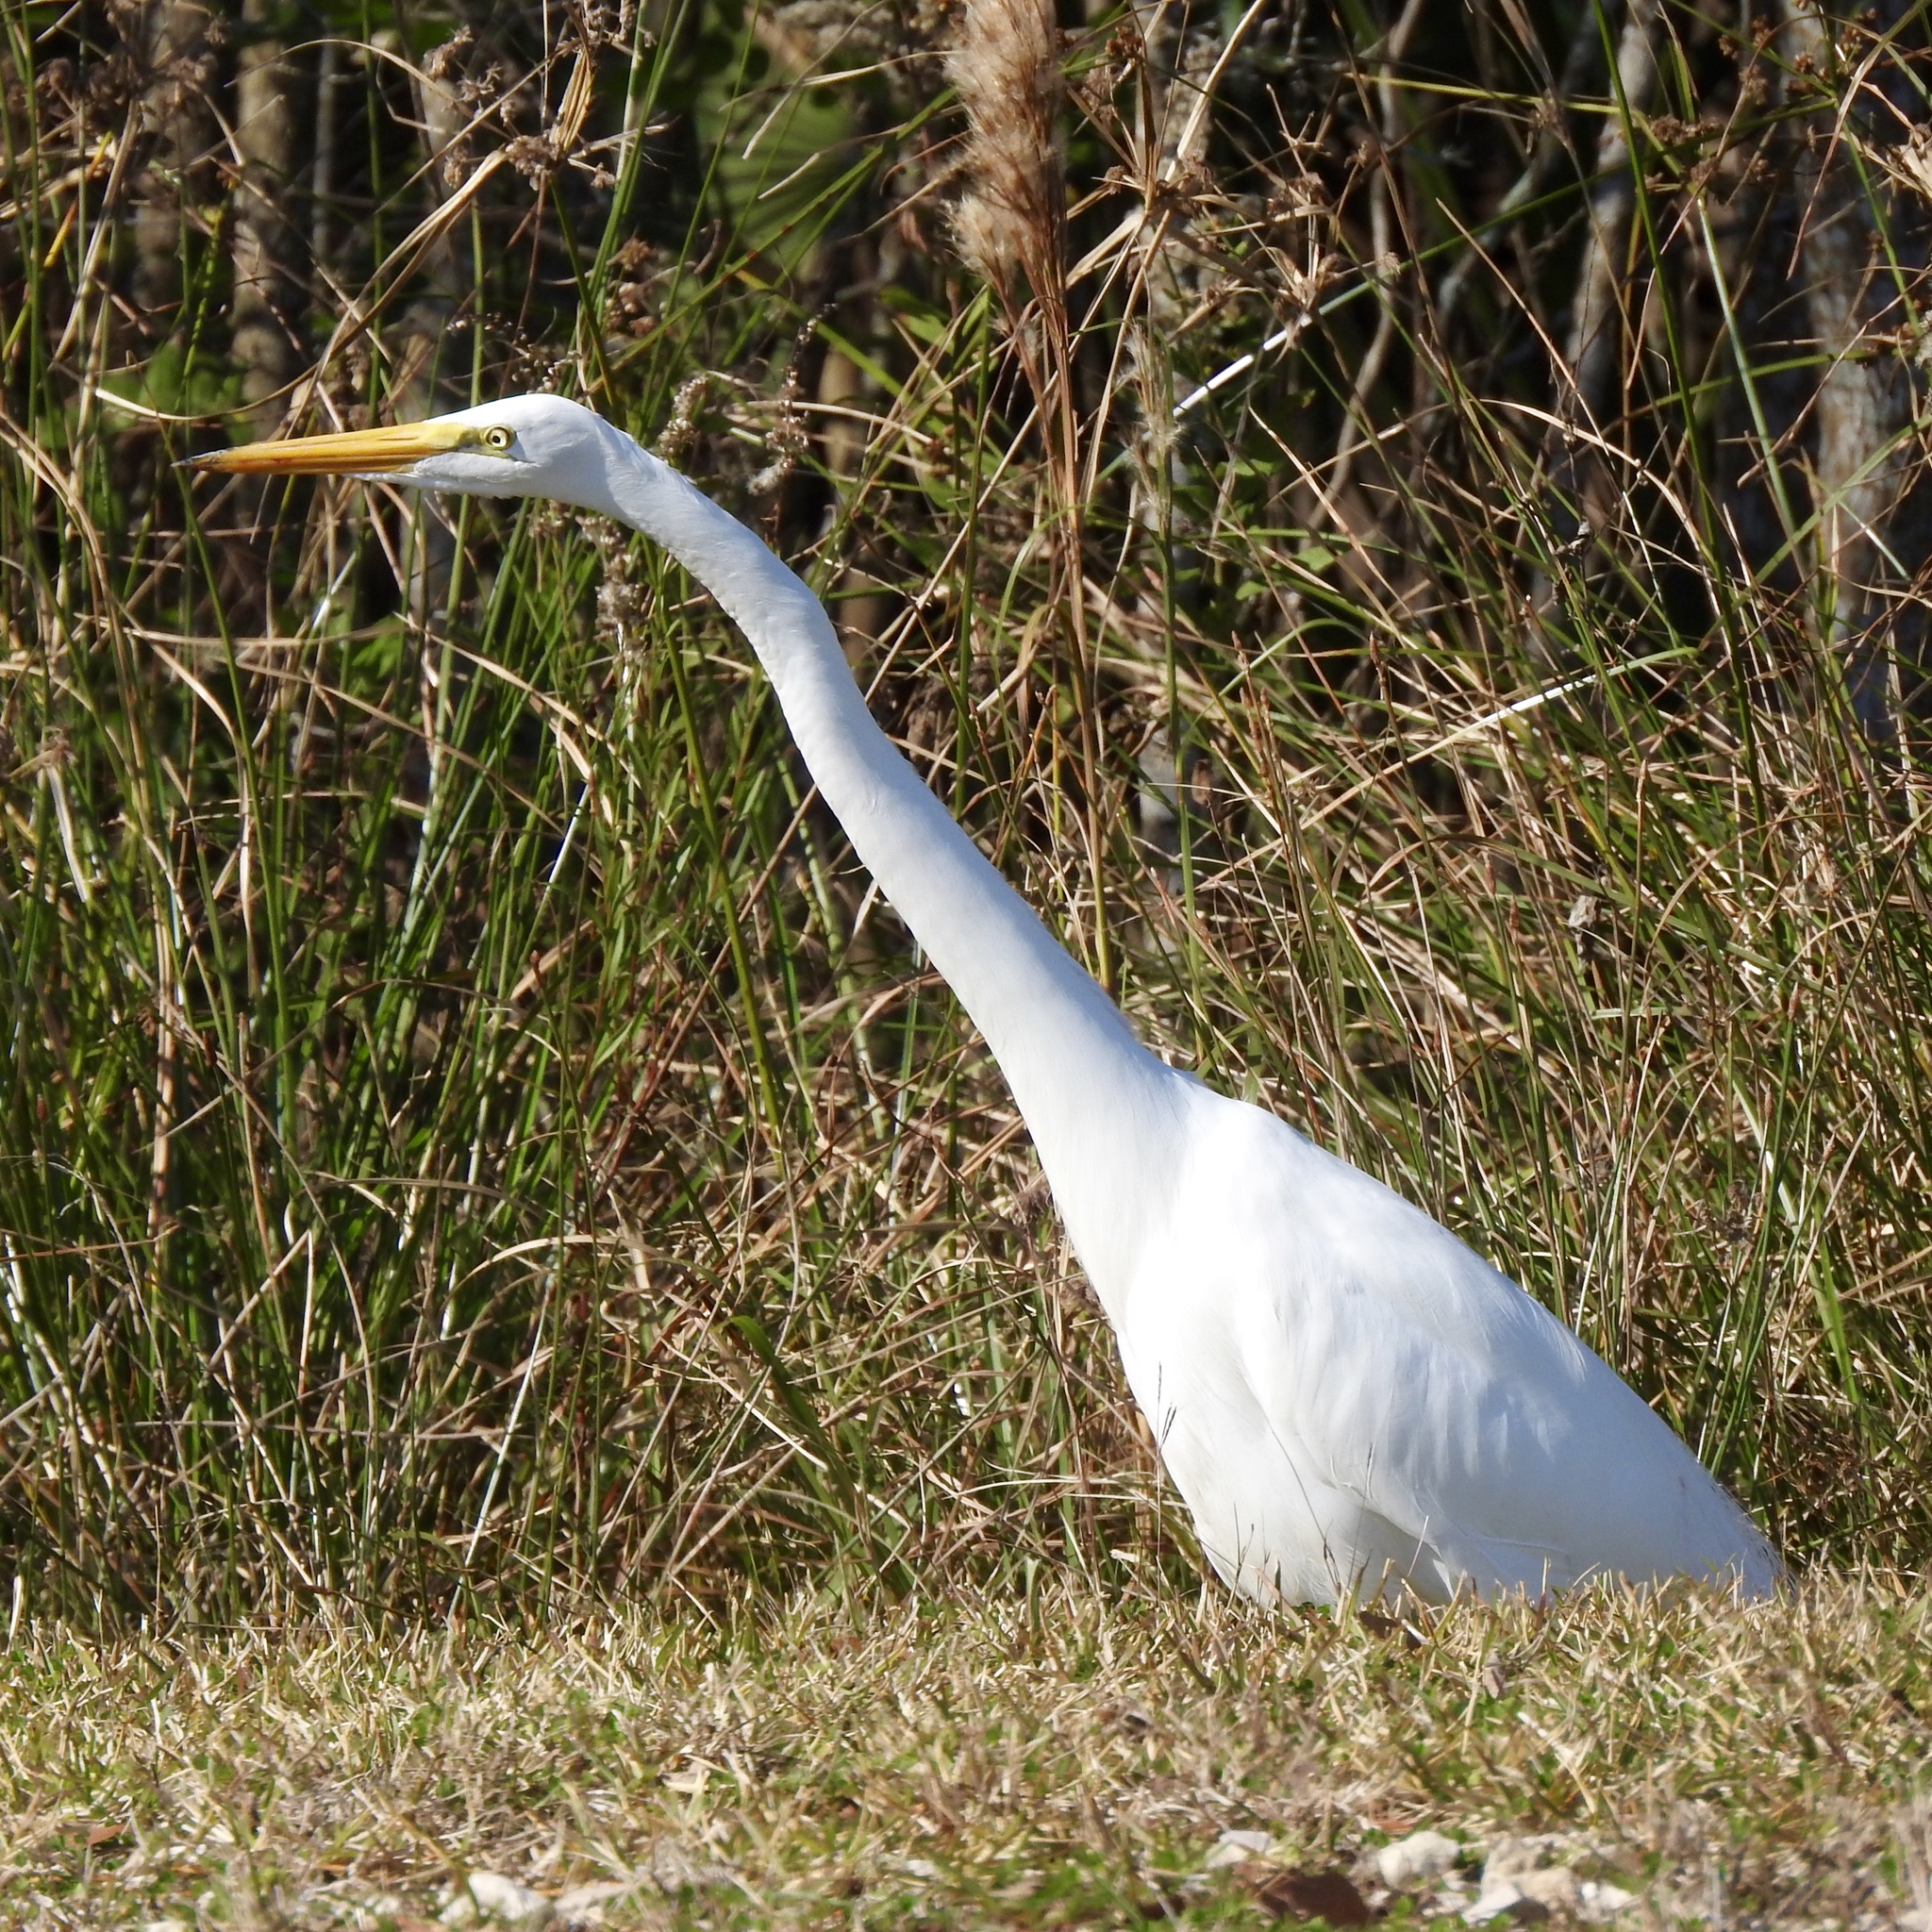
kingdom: Animalia
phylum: Chordata
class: Aves
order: Pelecaniformes
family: Ardeidae
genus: Ardea
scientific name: Ardea alba
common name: Great egret
